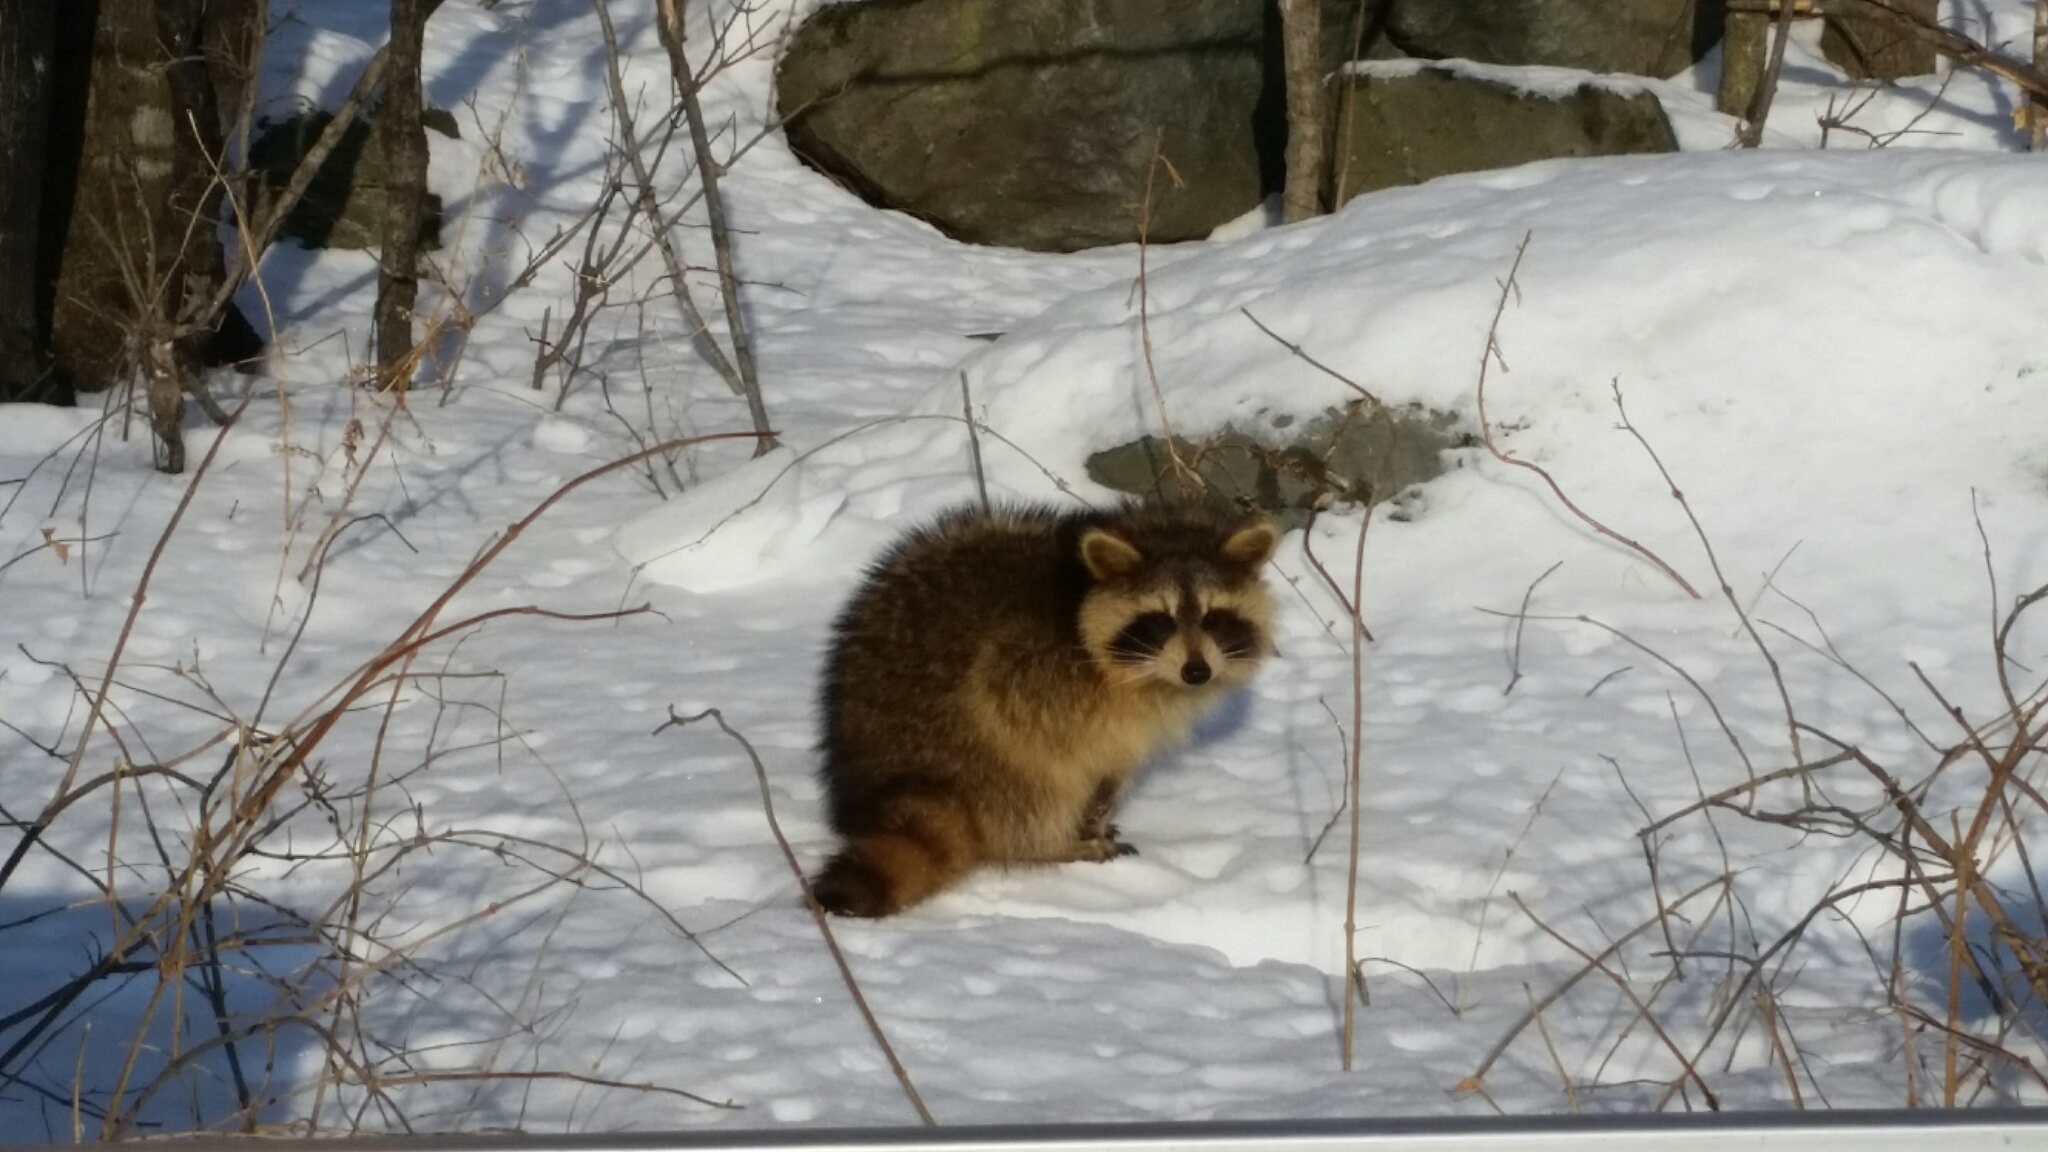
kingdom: Animalia
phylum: Chordata
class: Mammalia
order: Carnivora
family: Procyonidae
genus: Procyon
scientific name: Procyon lotor
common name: Raccoon
